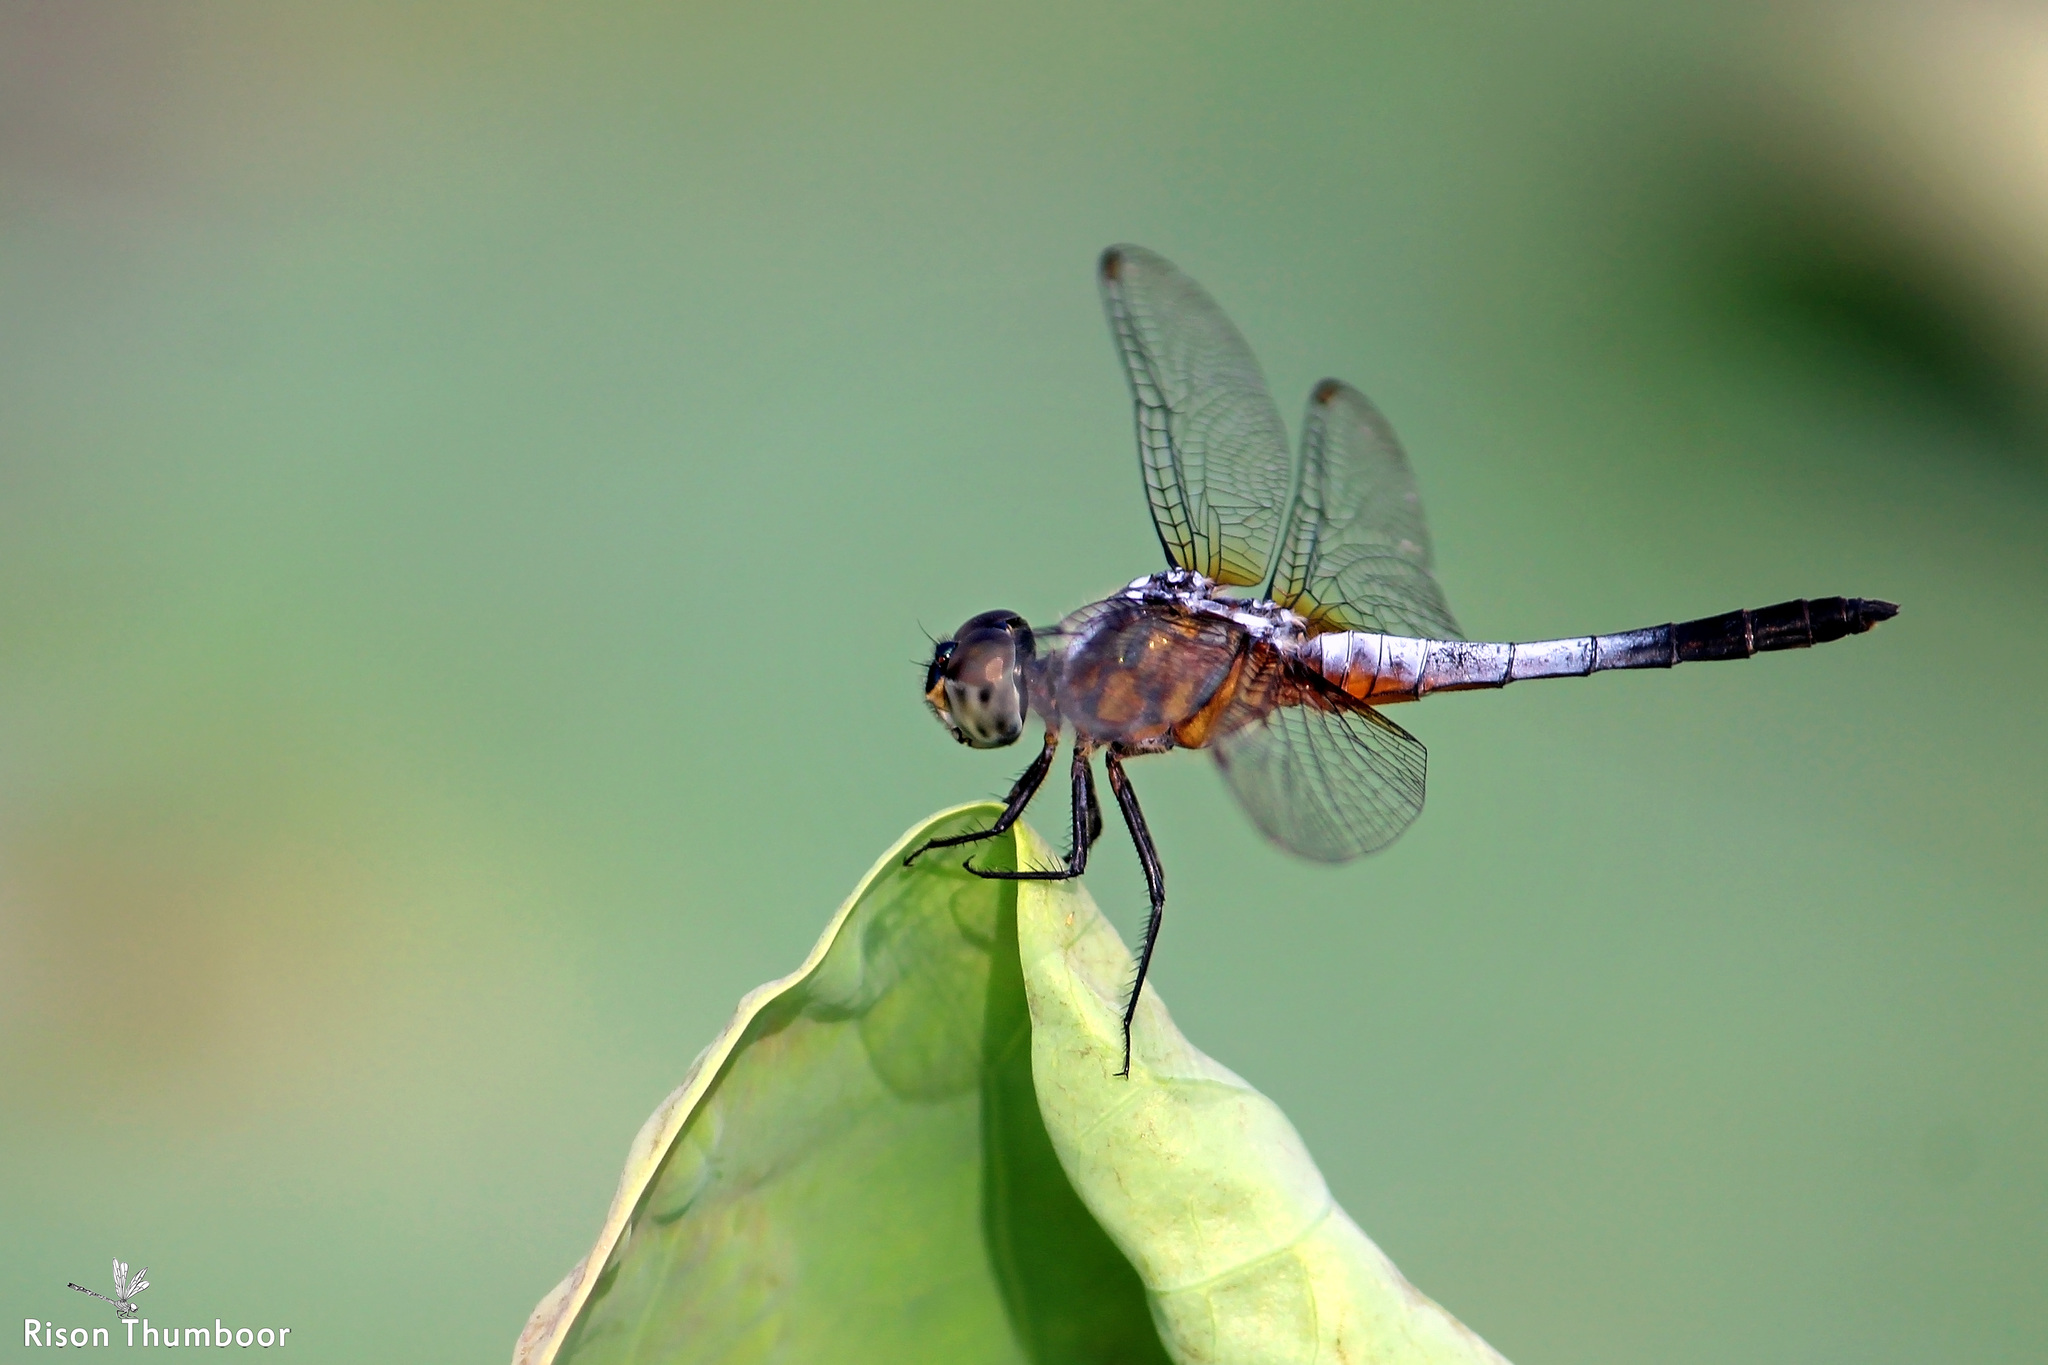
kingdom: Animalia
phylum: Arthropoda
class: Insecta
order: Odonata
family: Libellulidae
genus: Brachydiplax
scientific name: Brachydiplax chalybea
